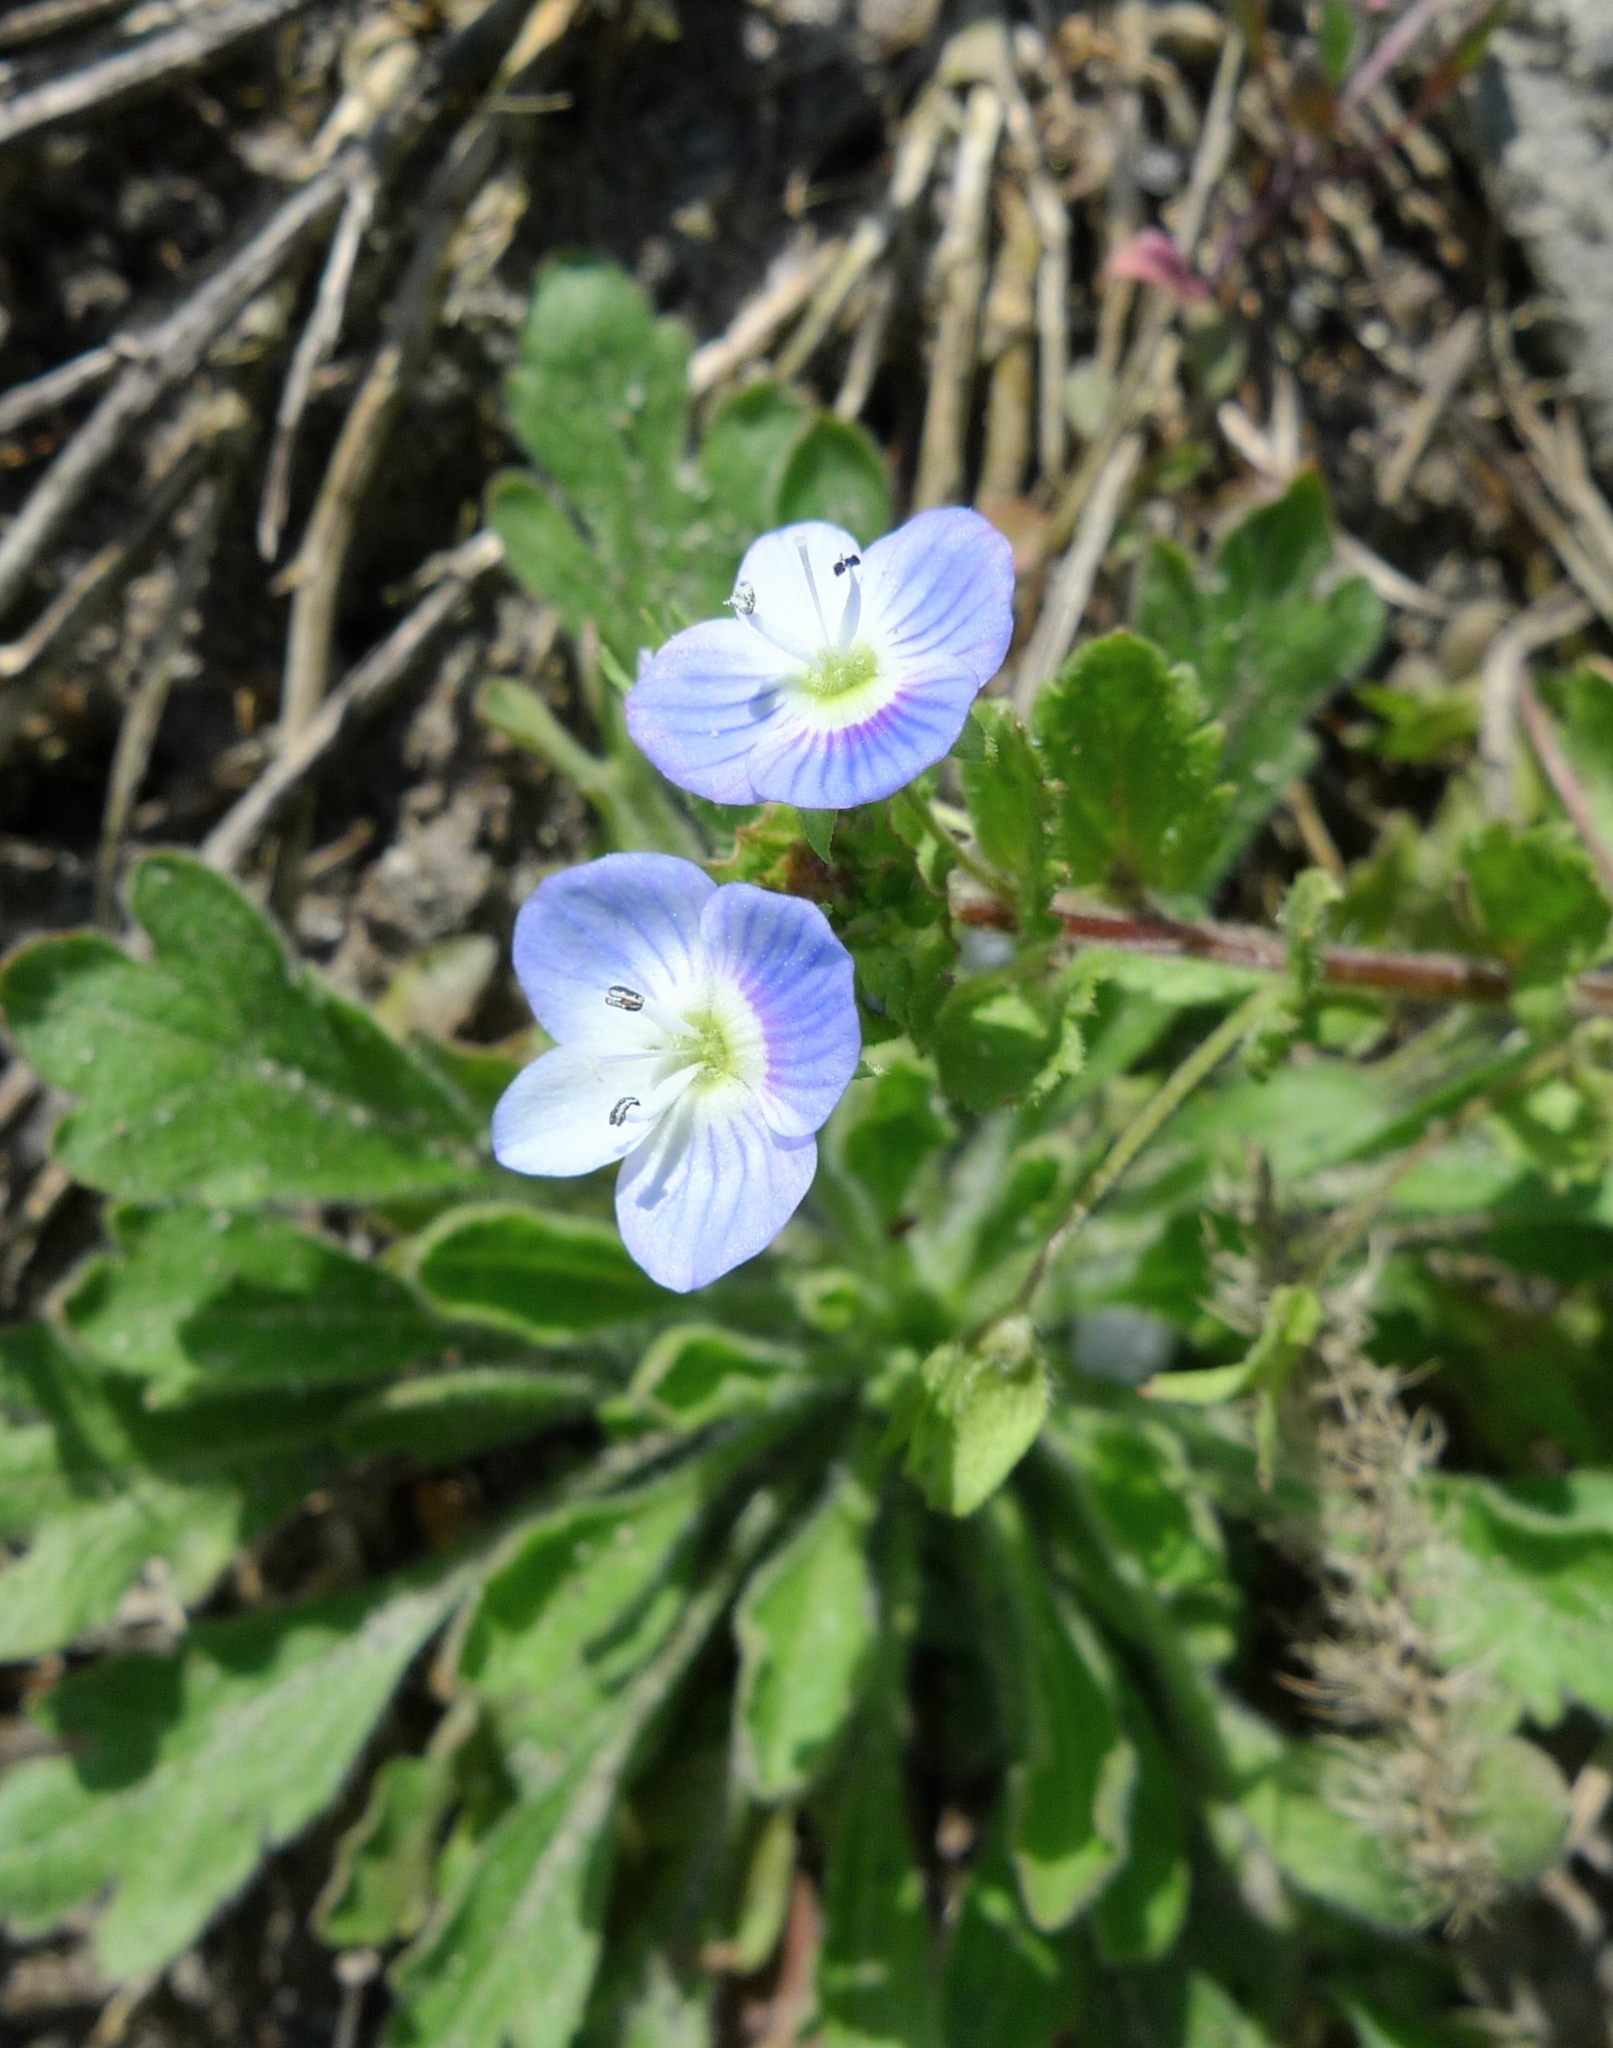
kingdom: Plantae
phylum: Tracheophyta
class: Magnoliopsida
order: Lamiales
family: Plantaginaceae
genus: Veronica
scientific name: Veronica persica
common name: Common field-speedwell
